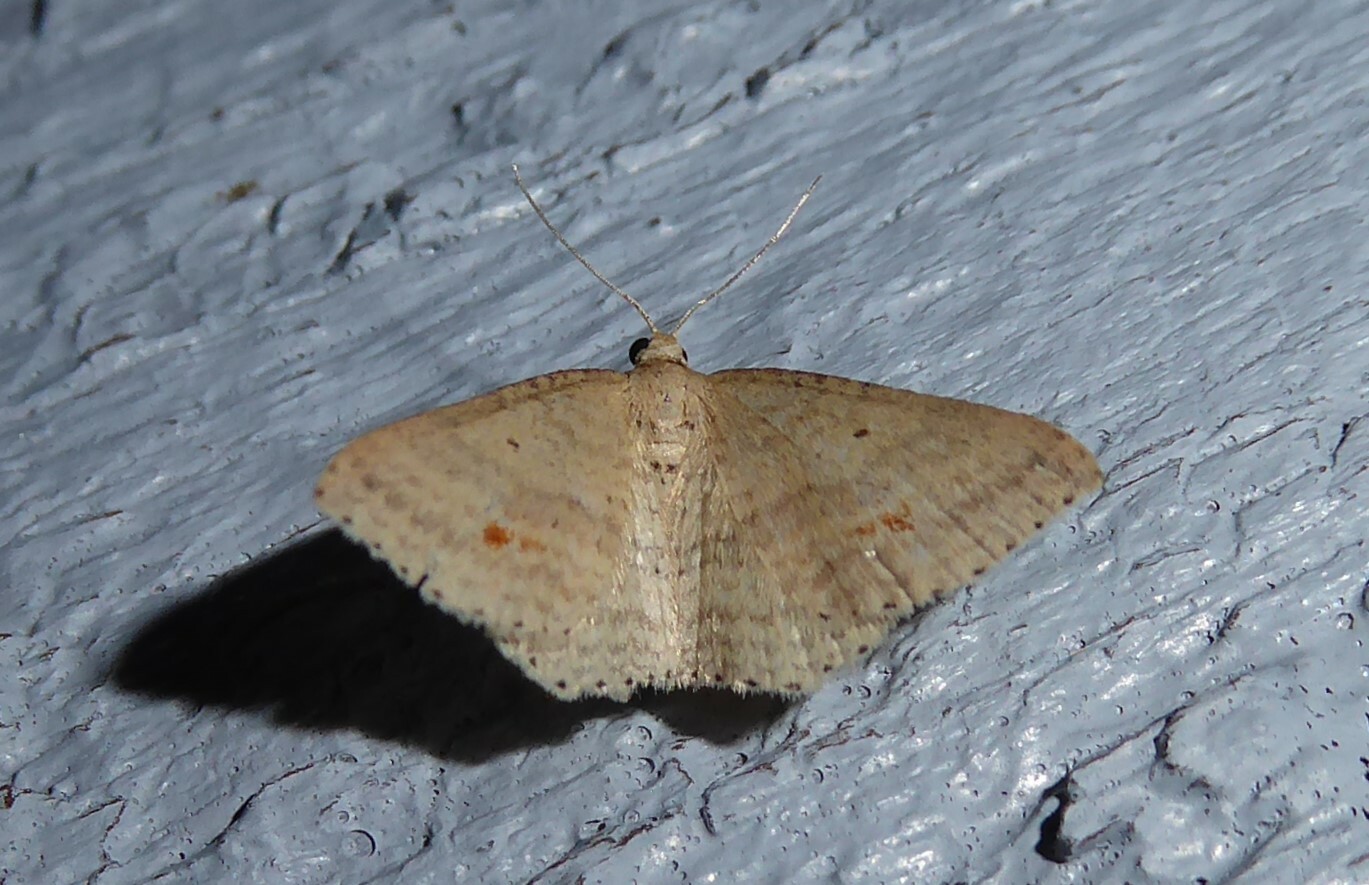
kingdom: Animalia
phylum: Arthropoda
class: Insecta
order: Lepidoptera
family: Geometridae
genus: Epicyme
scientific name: Epicyme rubropunctaria
